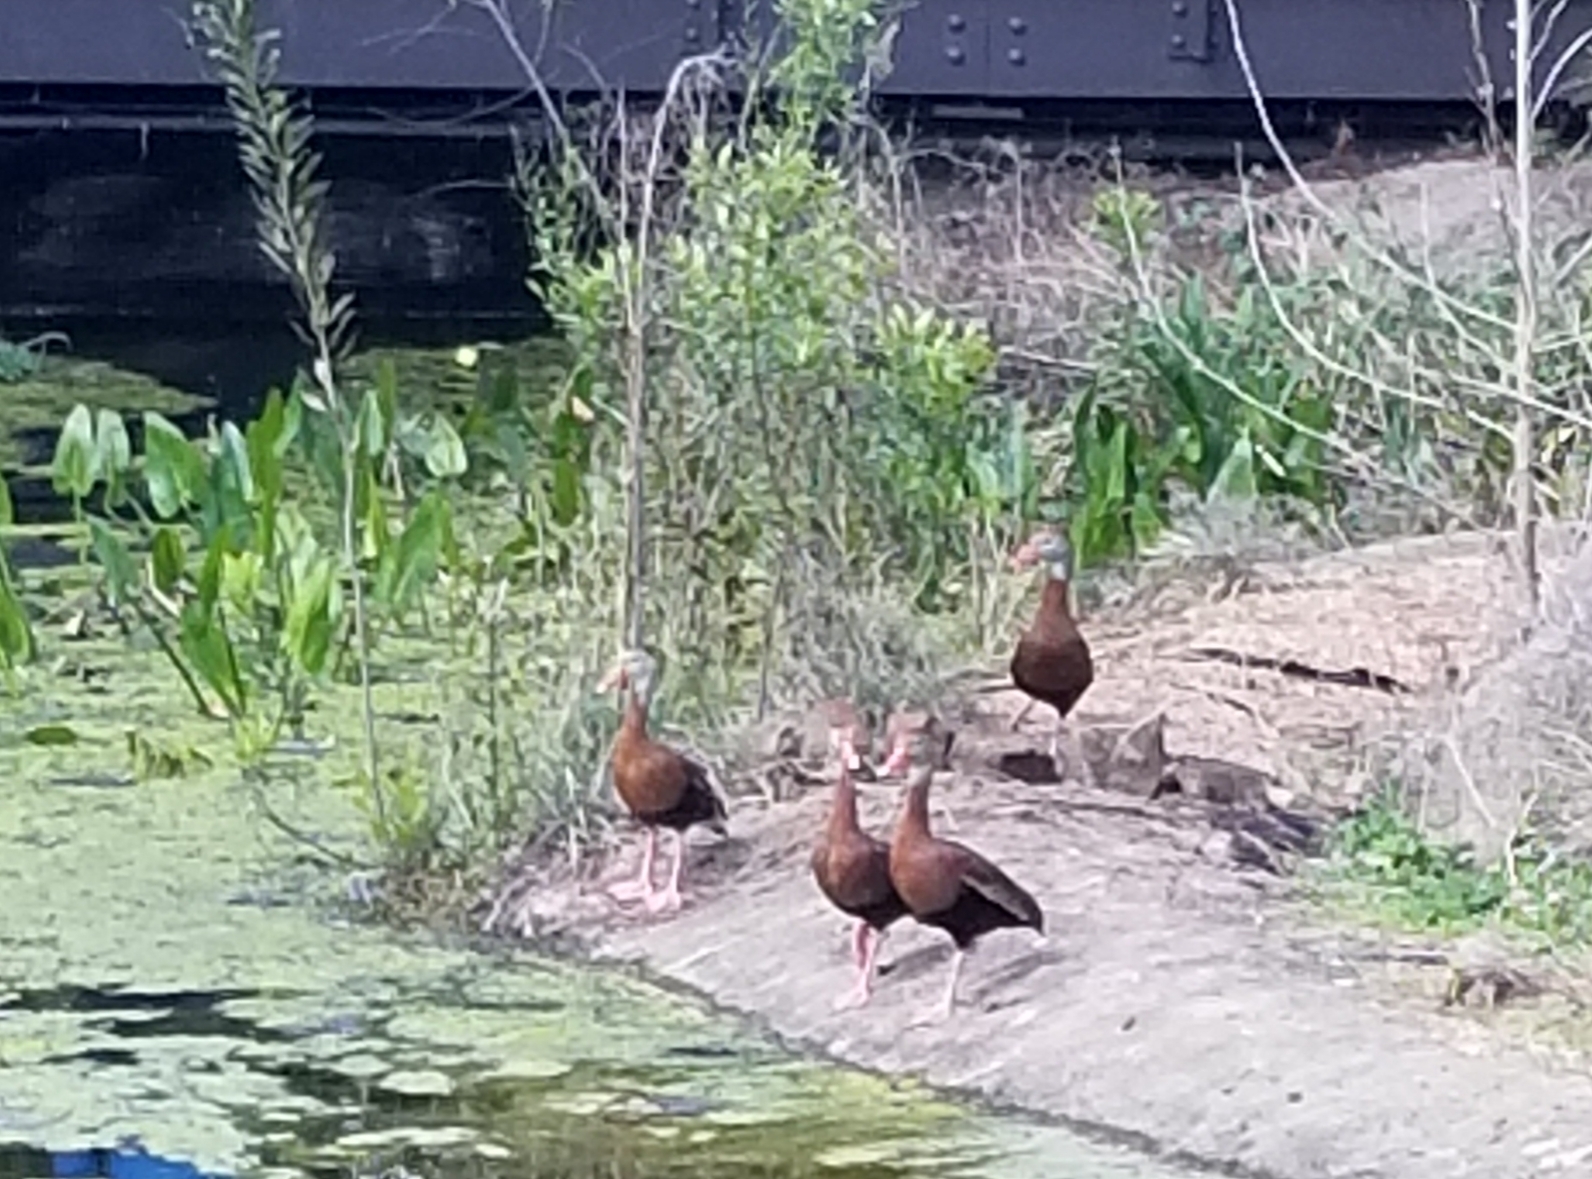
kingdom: Animalia
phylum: Chordata
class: Aves
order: Anseriformes
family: Anatidae
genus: Dendrocygna
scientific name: Dendrocygna autumnalis
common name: Black-bellied whistling duck
